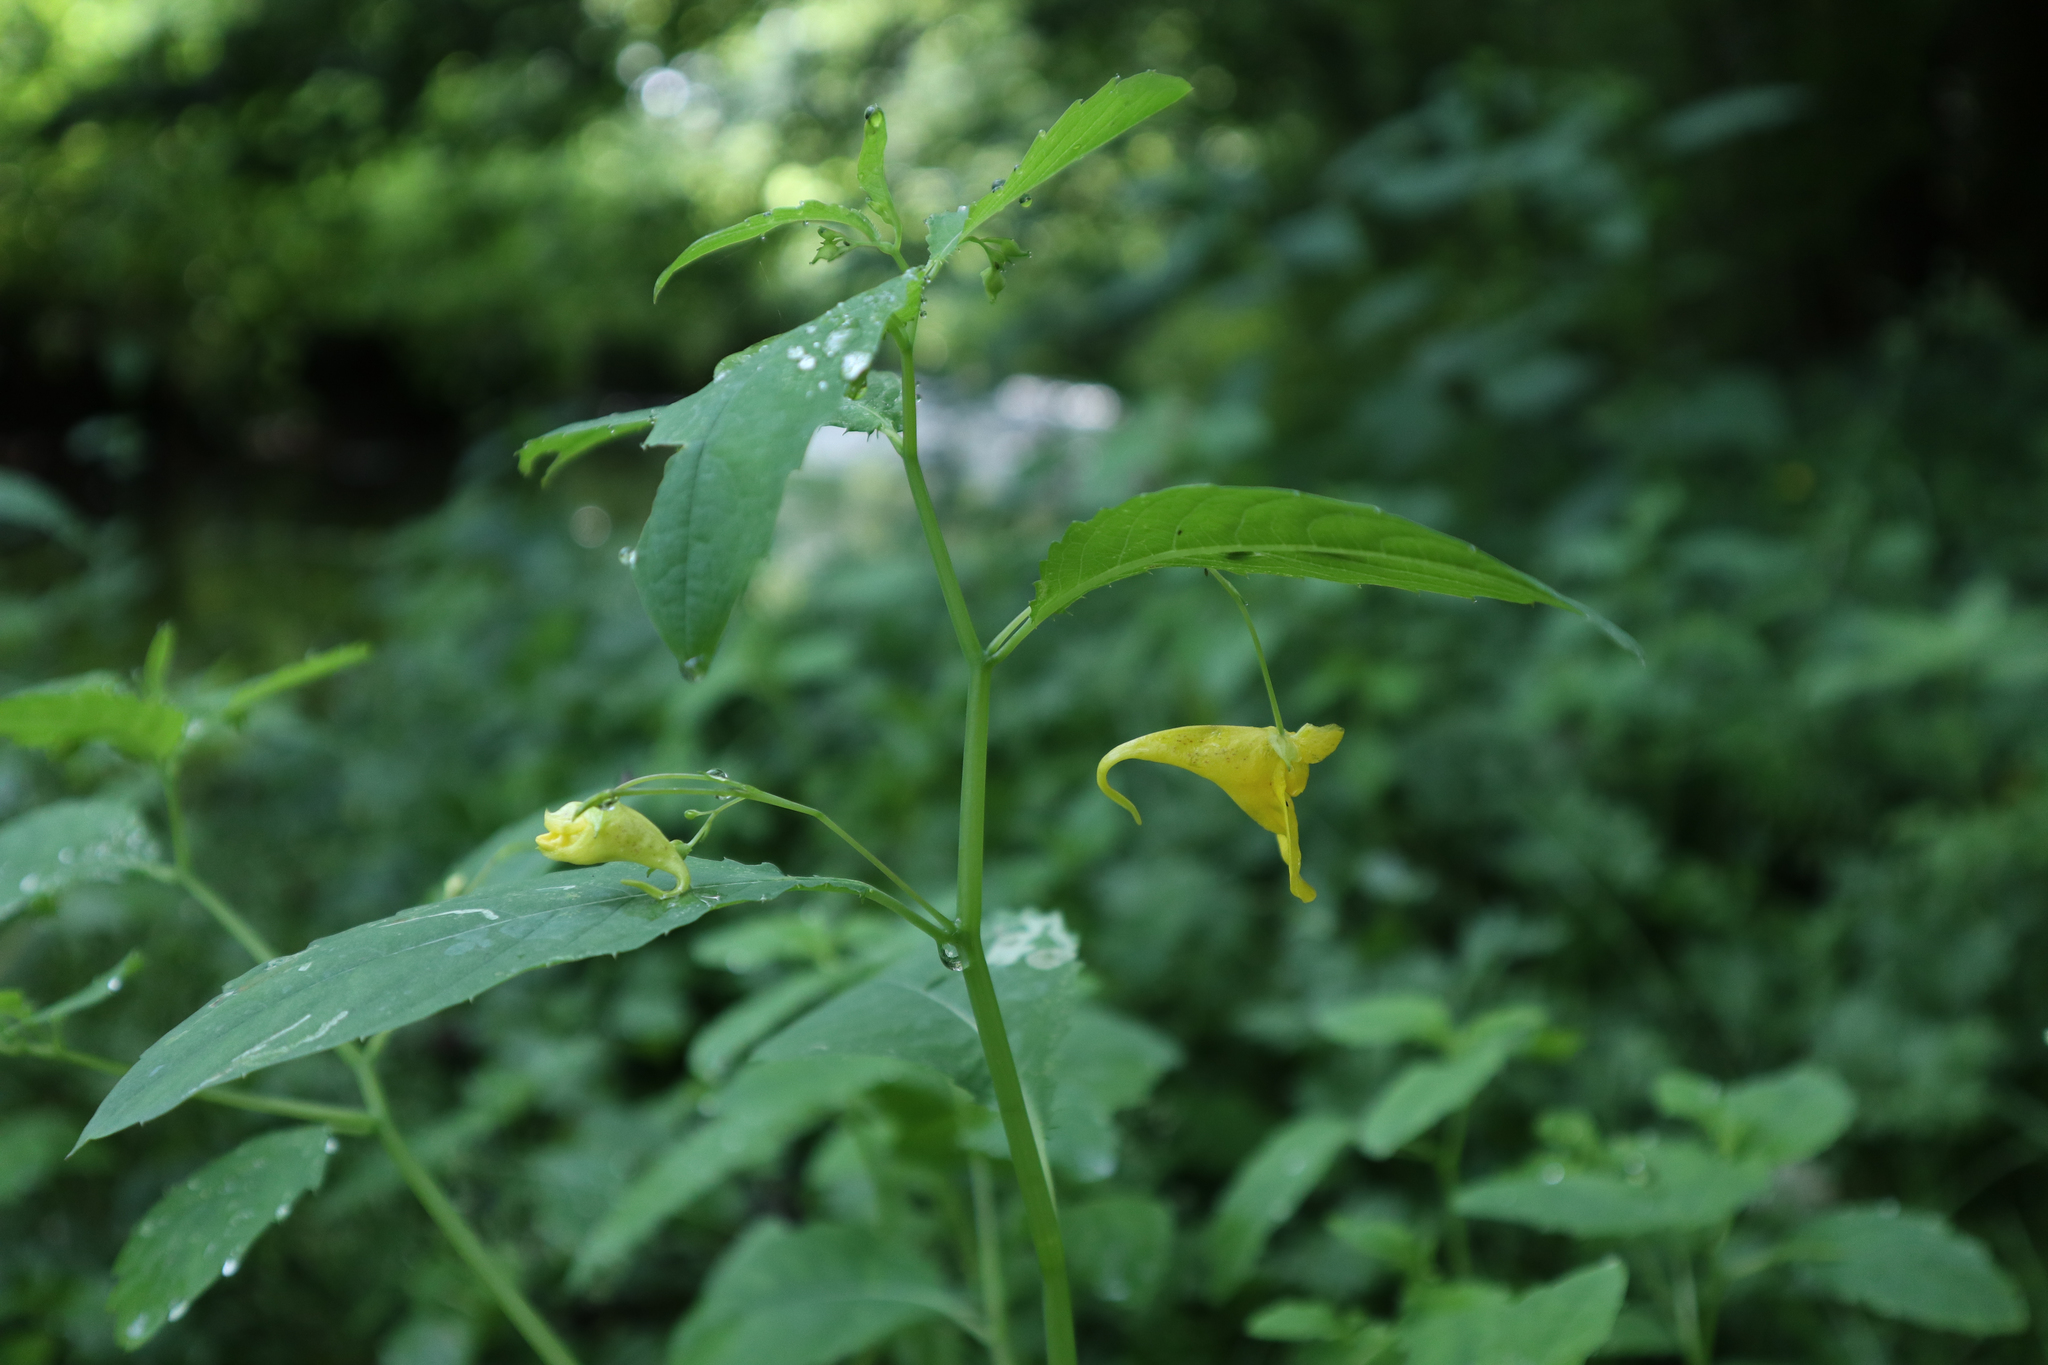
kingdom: Plantae
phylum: Tracheophyta
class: Magnoliopsida
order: Ericales
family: Balsaminaceae
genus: Impatiens
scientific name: Impatiens noli-tangere
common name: Touch-me-not balsam
